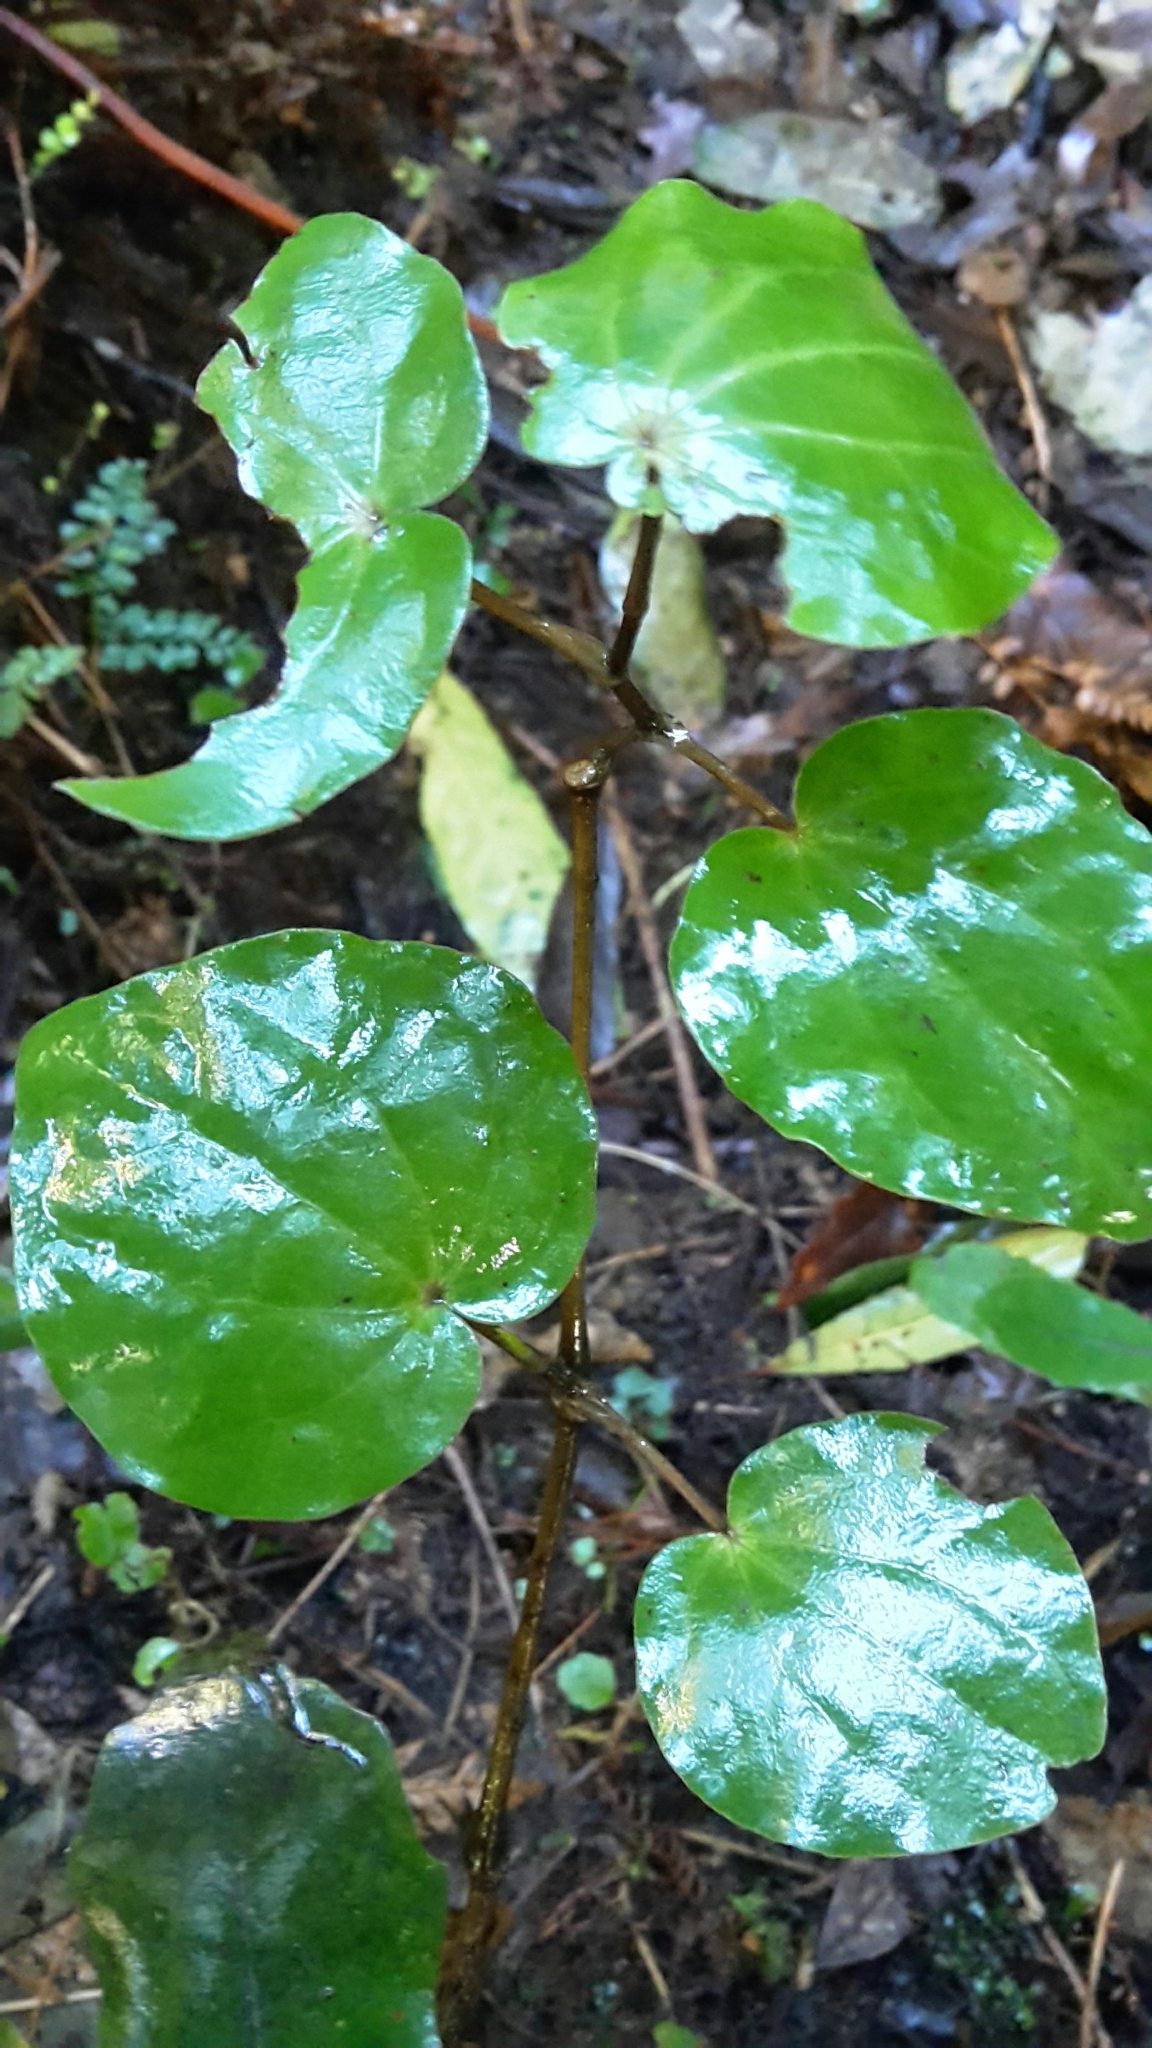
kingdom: Plantae
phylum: Tracheophyta
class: Magnoliopsida
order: Piperales
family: Piperaceae
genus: Macropiper
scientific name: Macropiper excelsum
